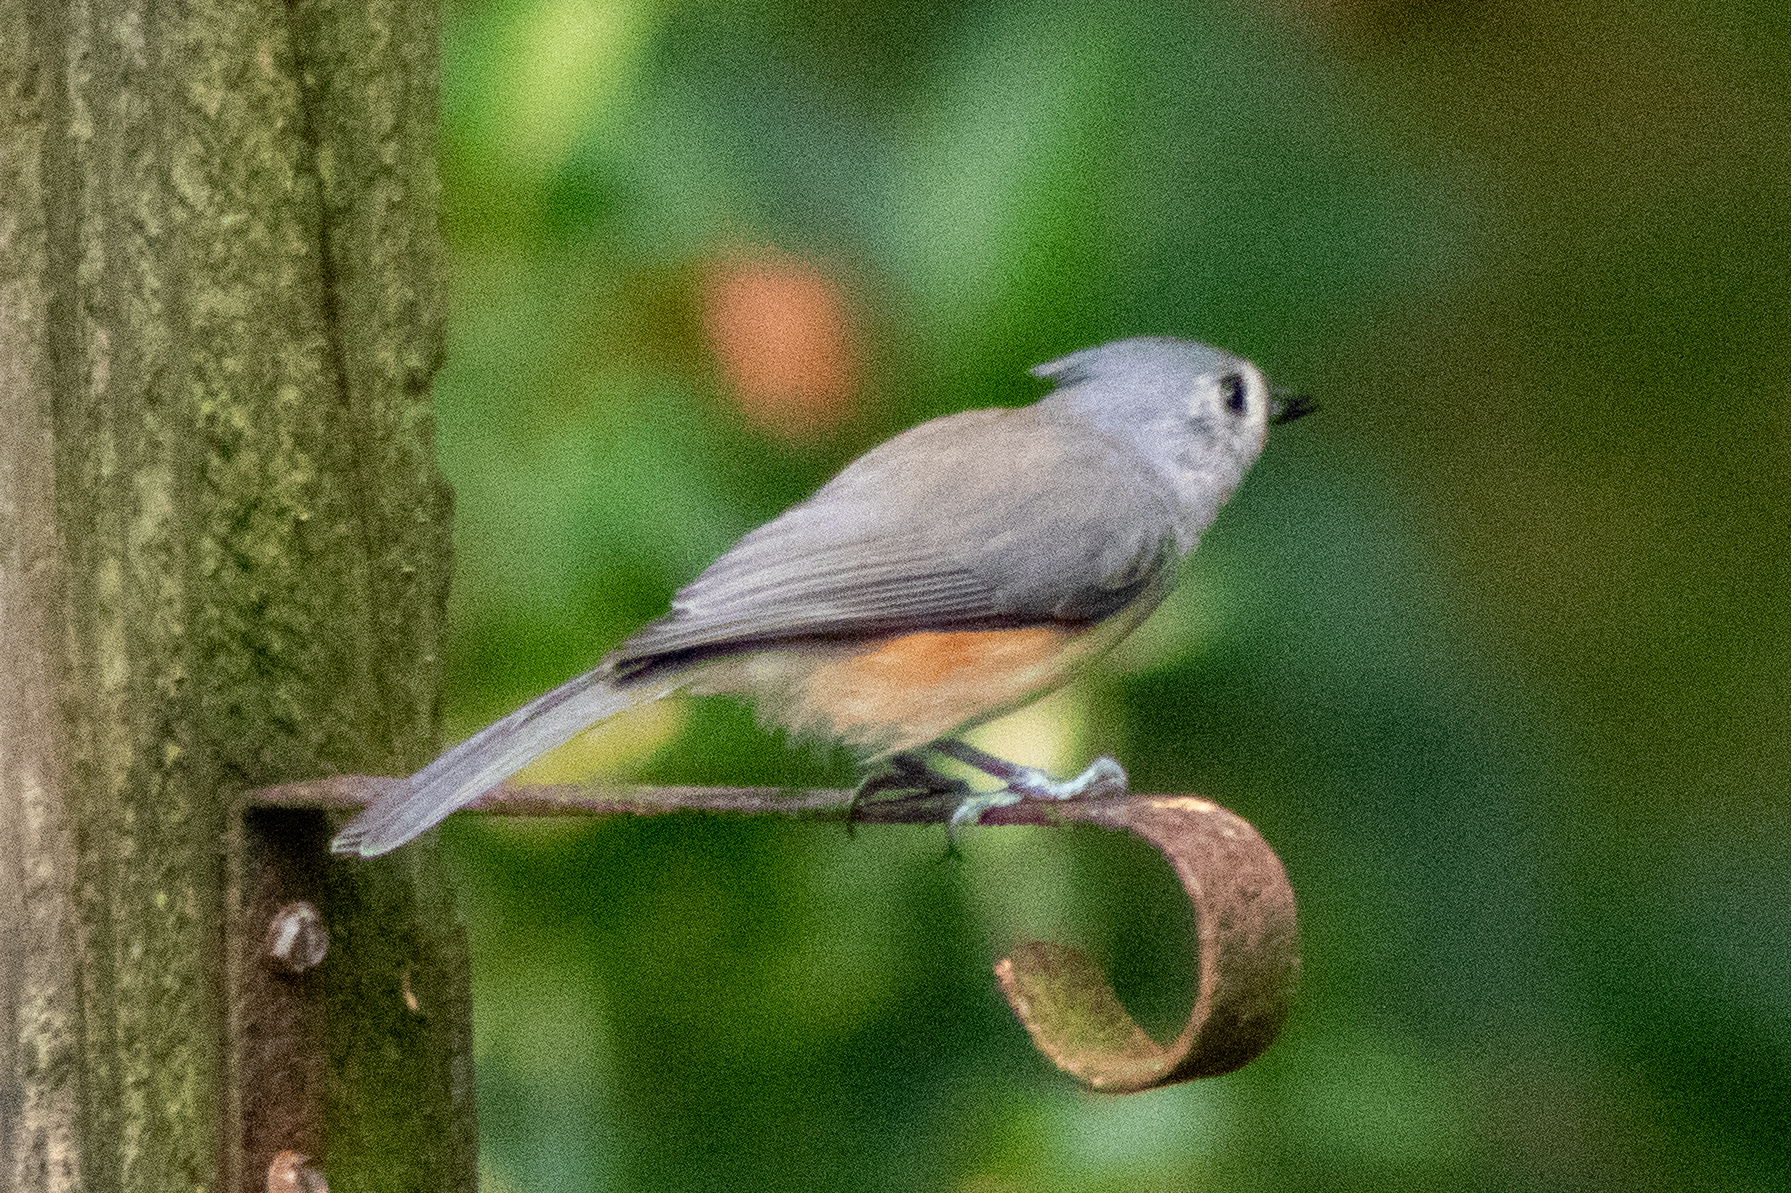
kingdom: Animalia
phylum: Chordata
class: Aves
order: Passeriformes
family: Paridae
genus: Baeolophus
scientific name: Baeolophus bicolor
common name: Tufted titmouse
